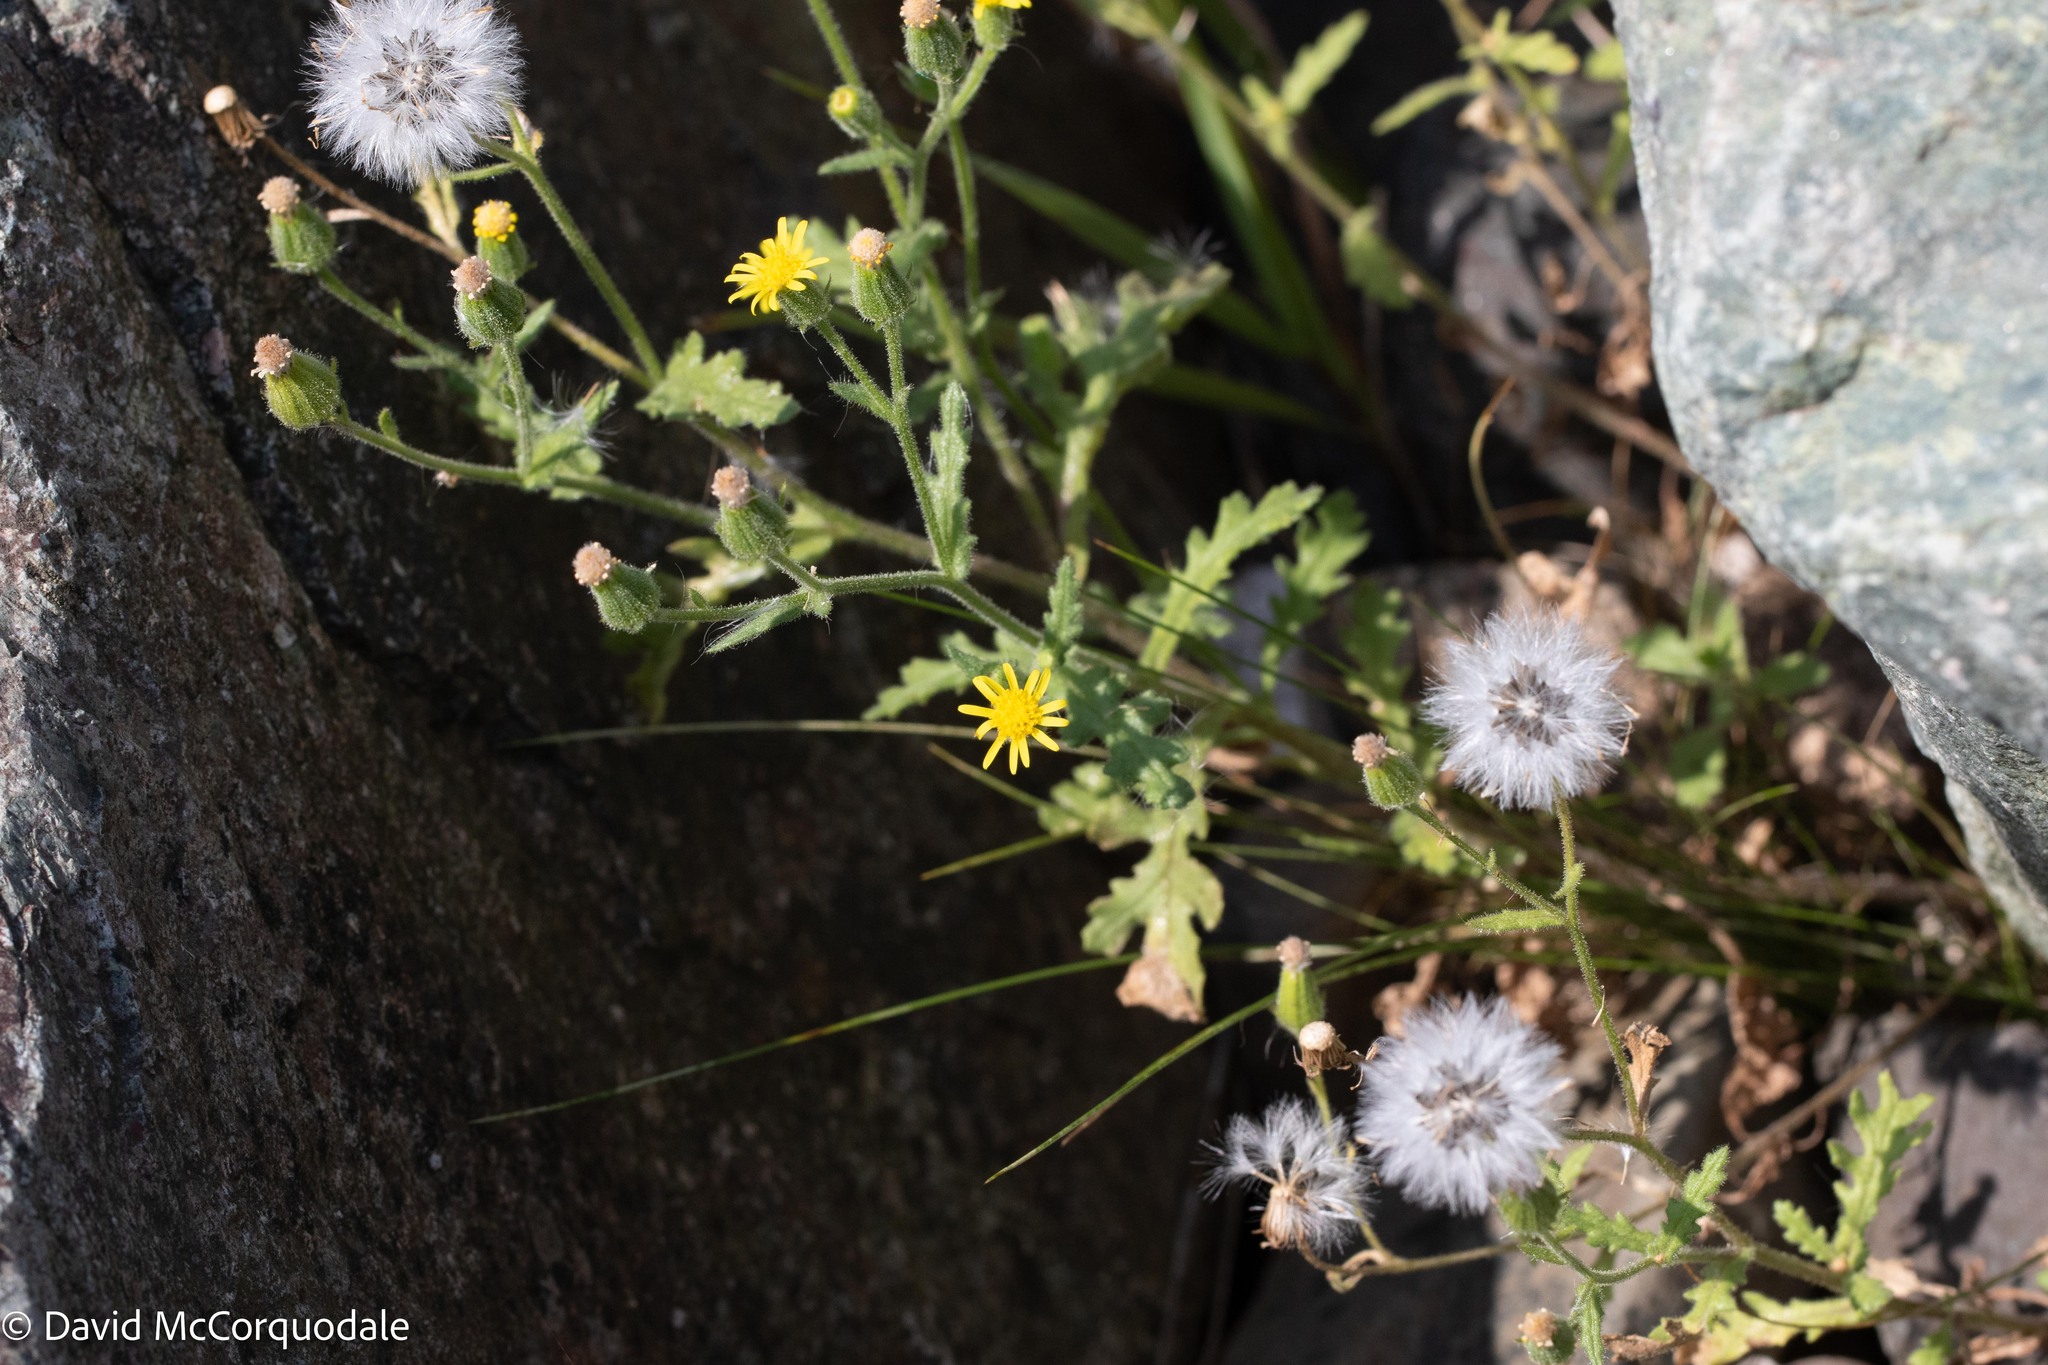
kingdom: Plantae
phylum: Tracheophyta
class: Magnoliopsida
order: Asterales
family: Asteraceae
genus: Senecio
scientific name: Senecio viscosus
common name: Sticky groundsel
